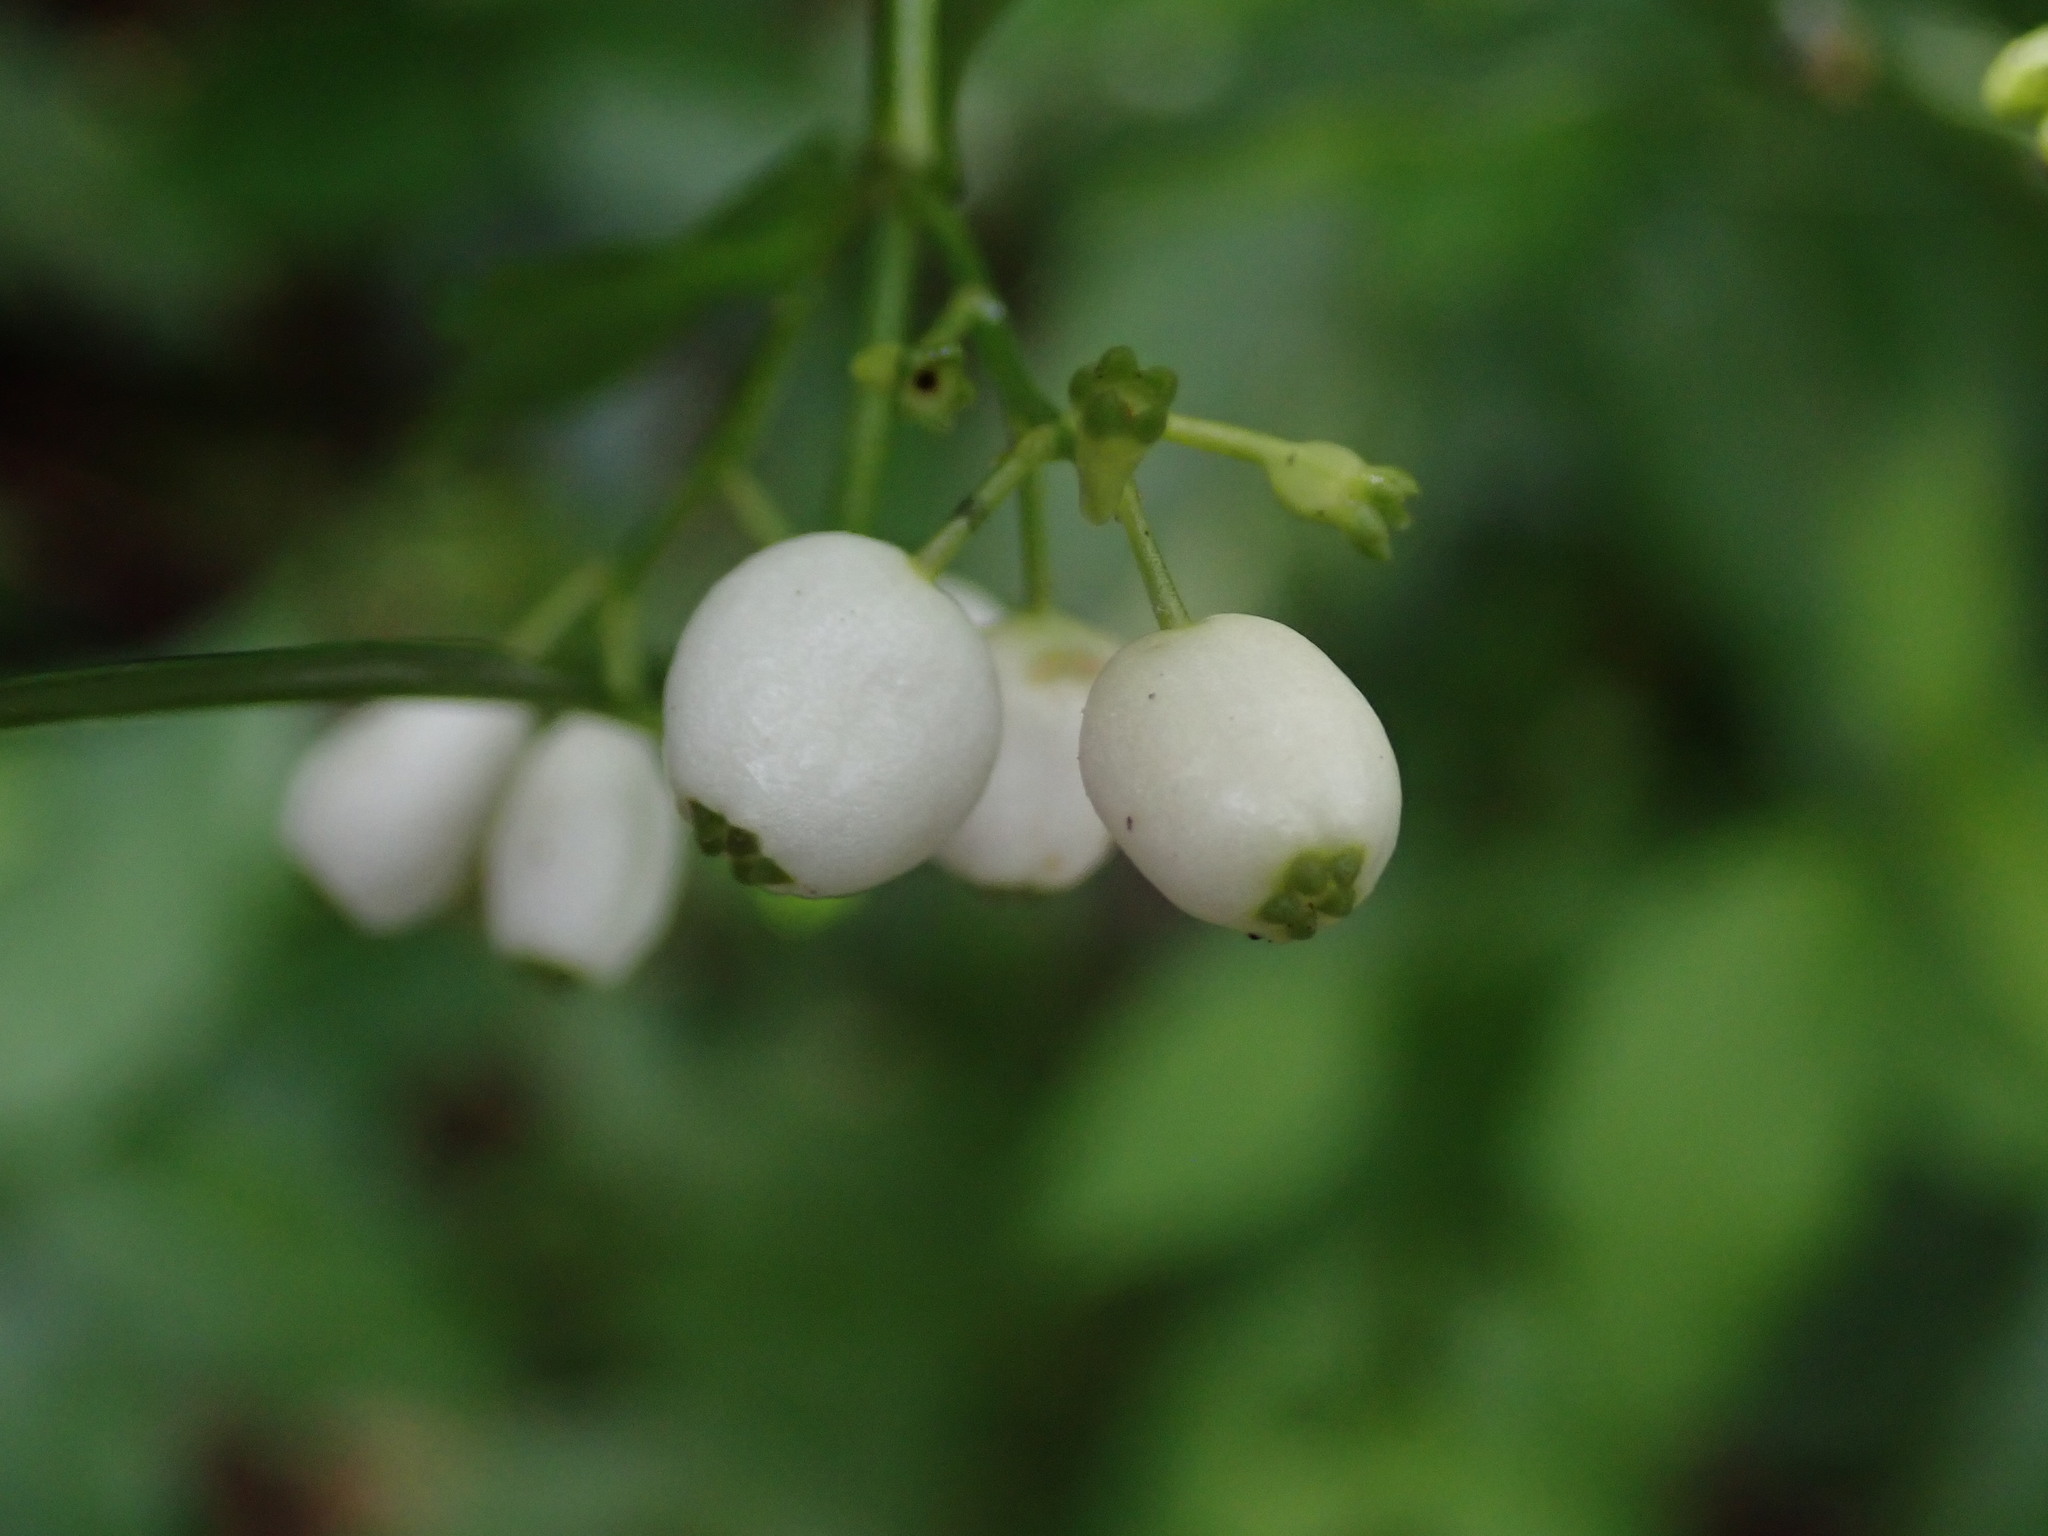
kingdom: Plantae
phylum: Tracheophyta
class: Magnoliopsida
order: Gentianales
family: Rubiaceae
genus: Chiococca
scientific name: Chiococca alba
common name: Snowberry
